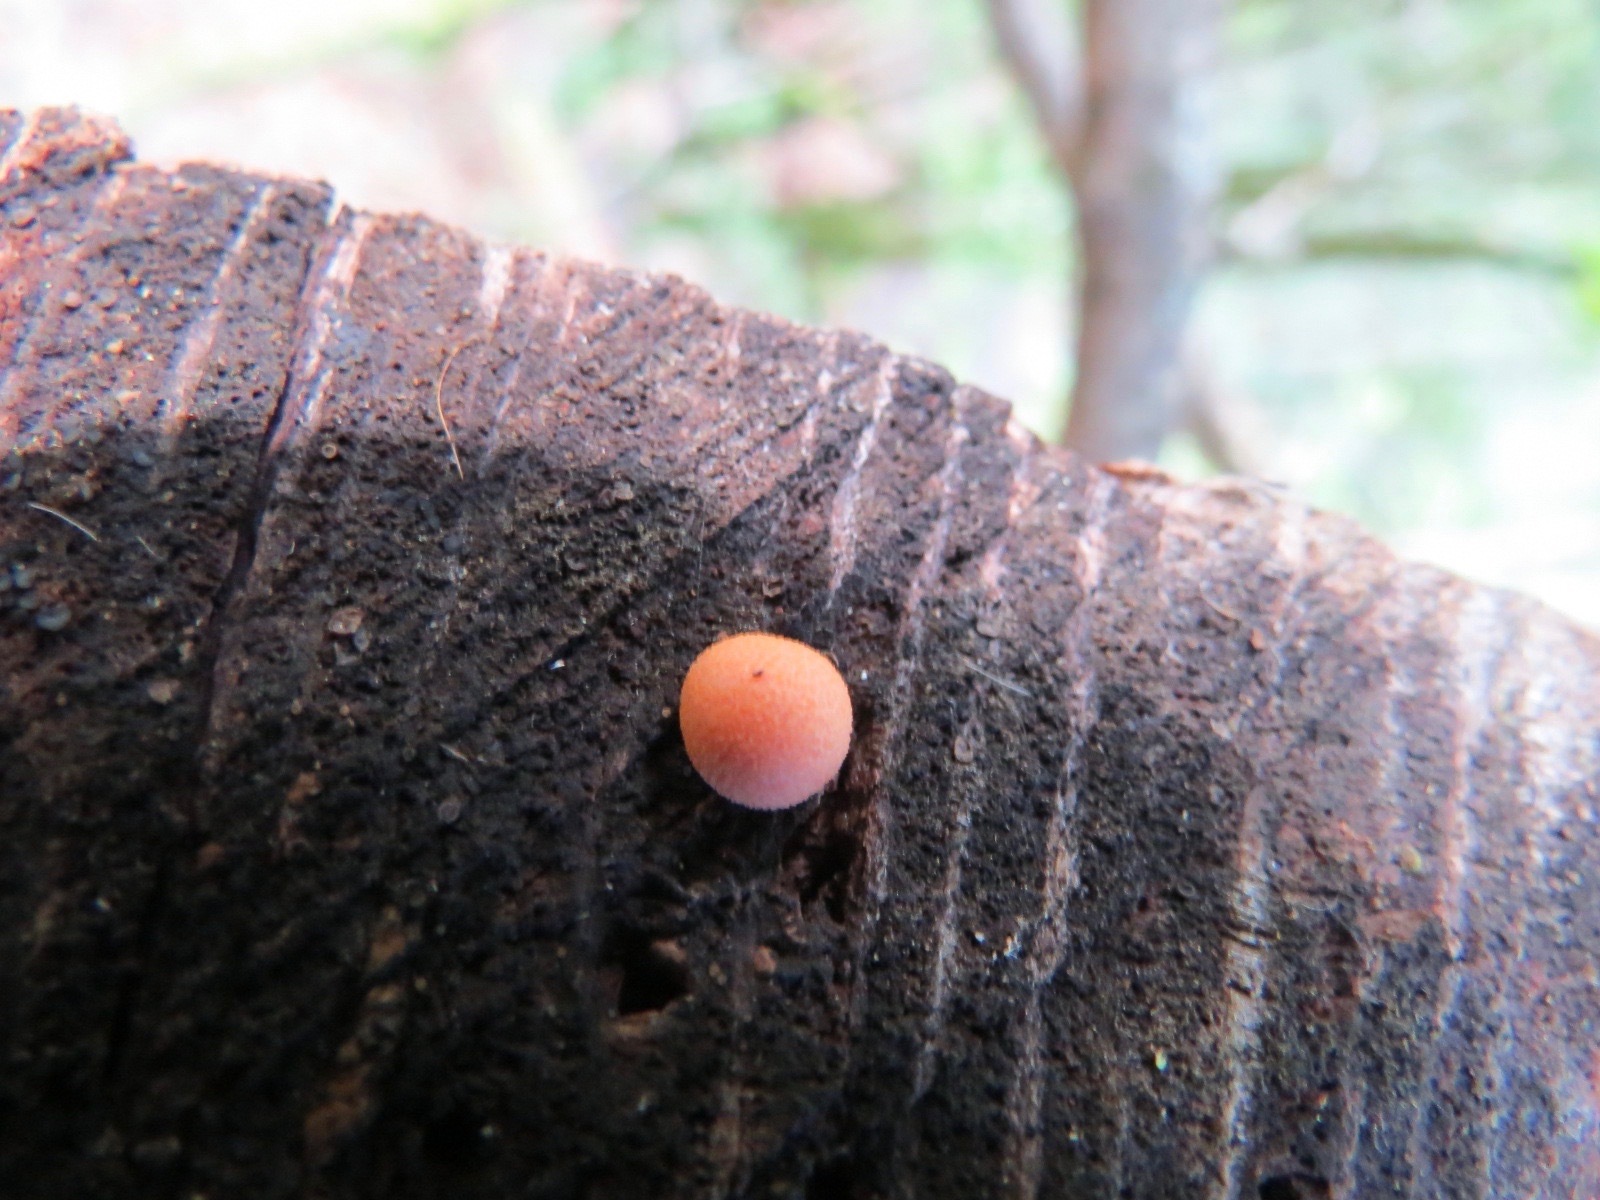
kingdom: Protozoa
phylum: Mycetozoa
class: Myxomycetes
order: Cribrariales
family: Tubiferaceae
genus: Lycogala
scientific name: Lycogala epidendrum
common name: Wolf's milk
